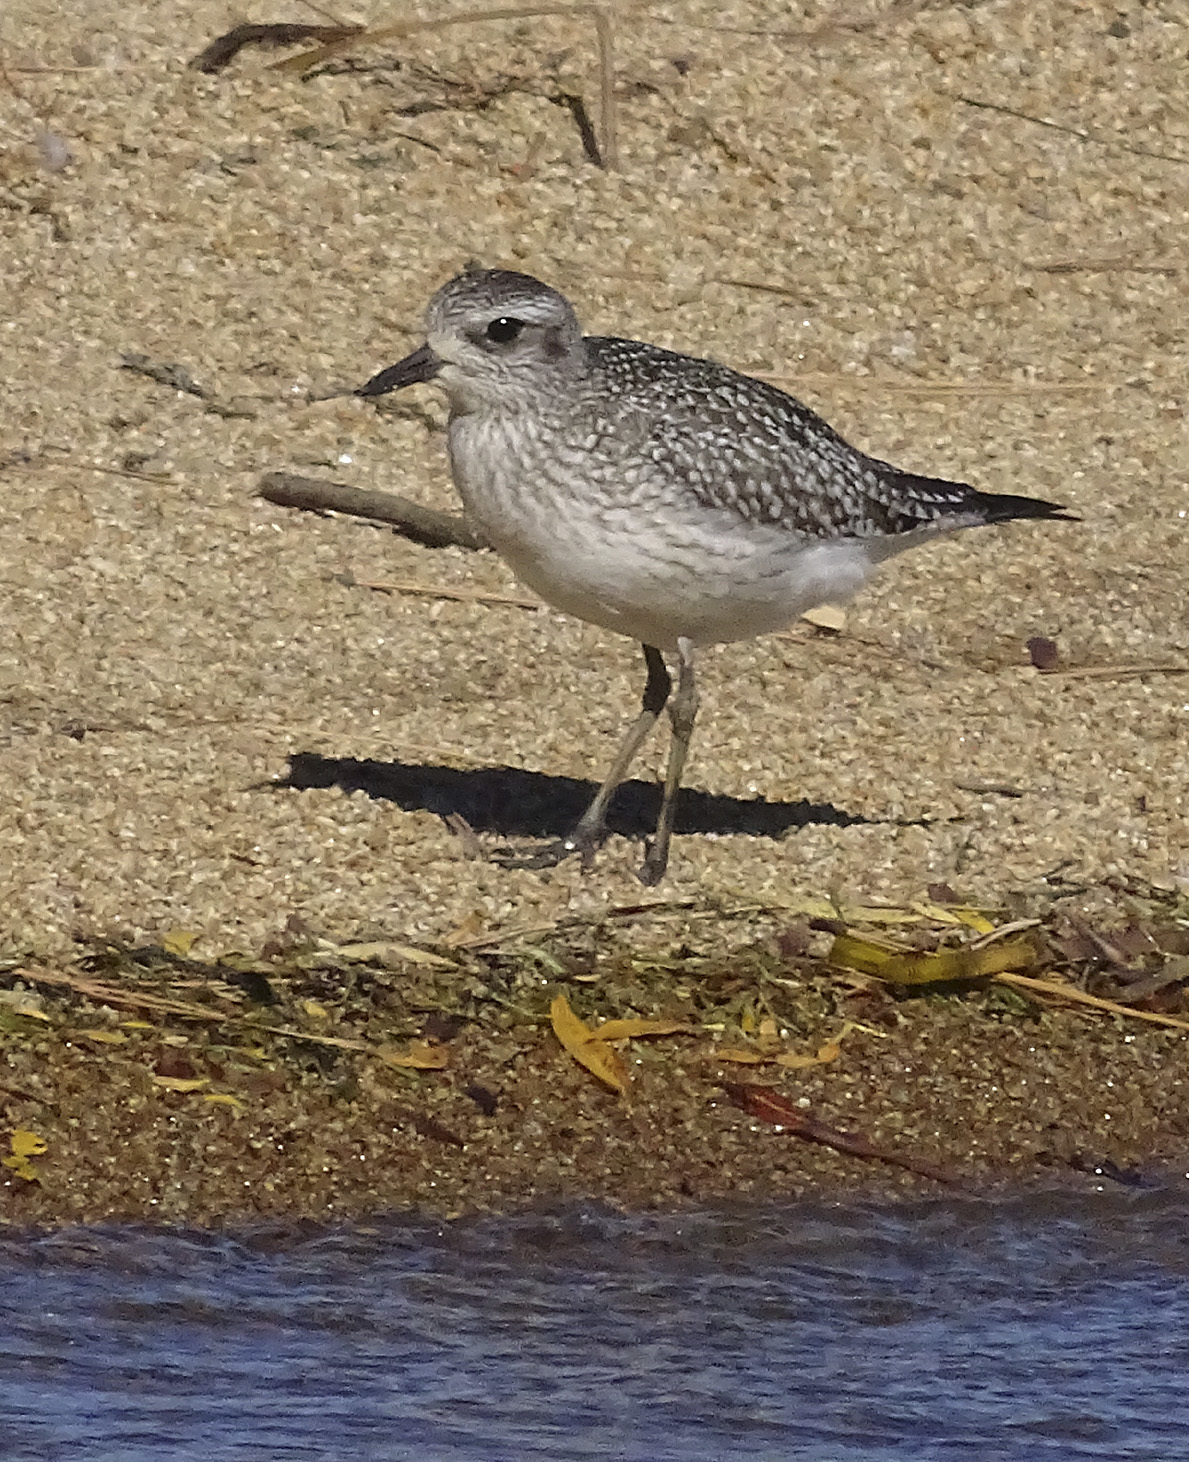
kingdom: Animalia
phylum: Chordata
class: Aves
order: Charadriiformes
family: Charadriidae
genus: Pluvialis
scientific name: Pluvialis squatarola
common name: Grey plover
